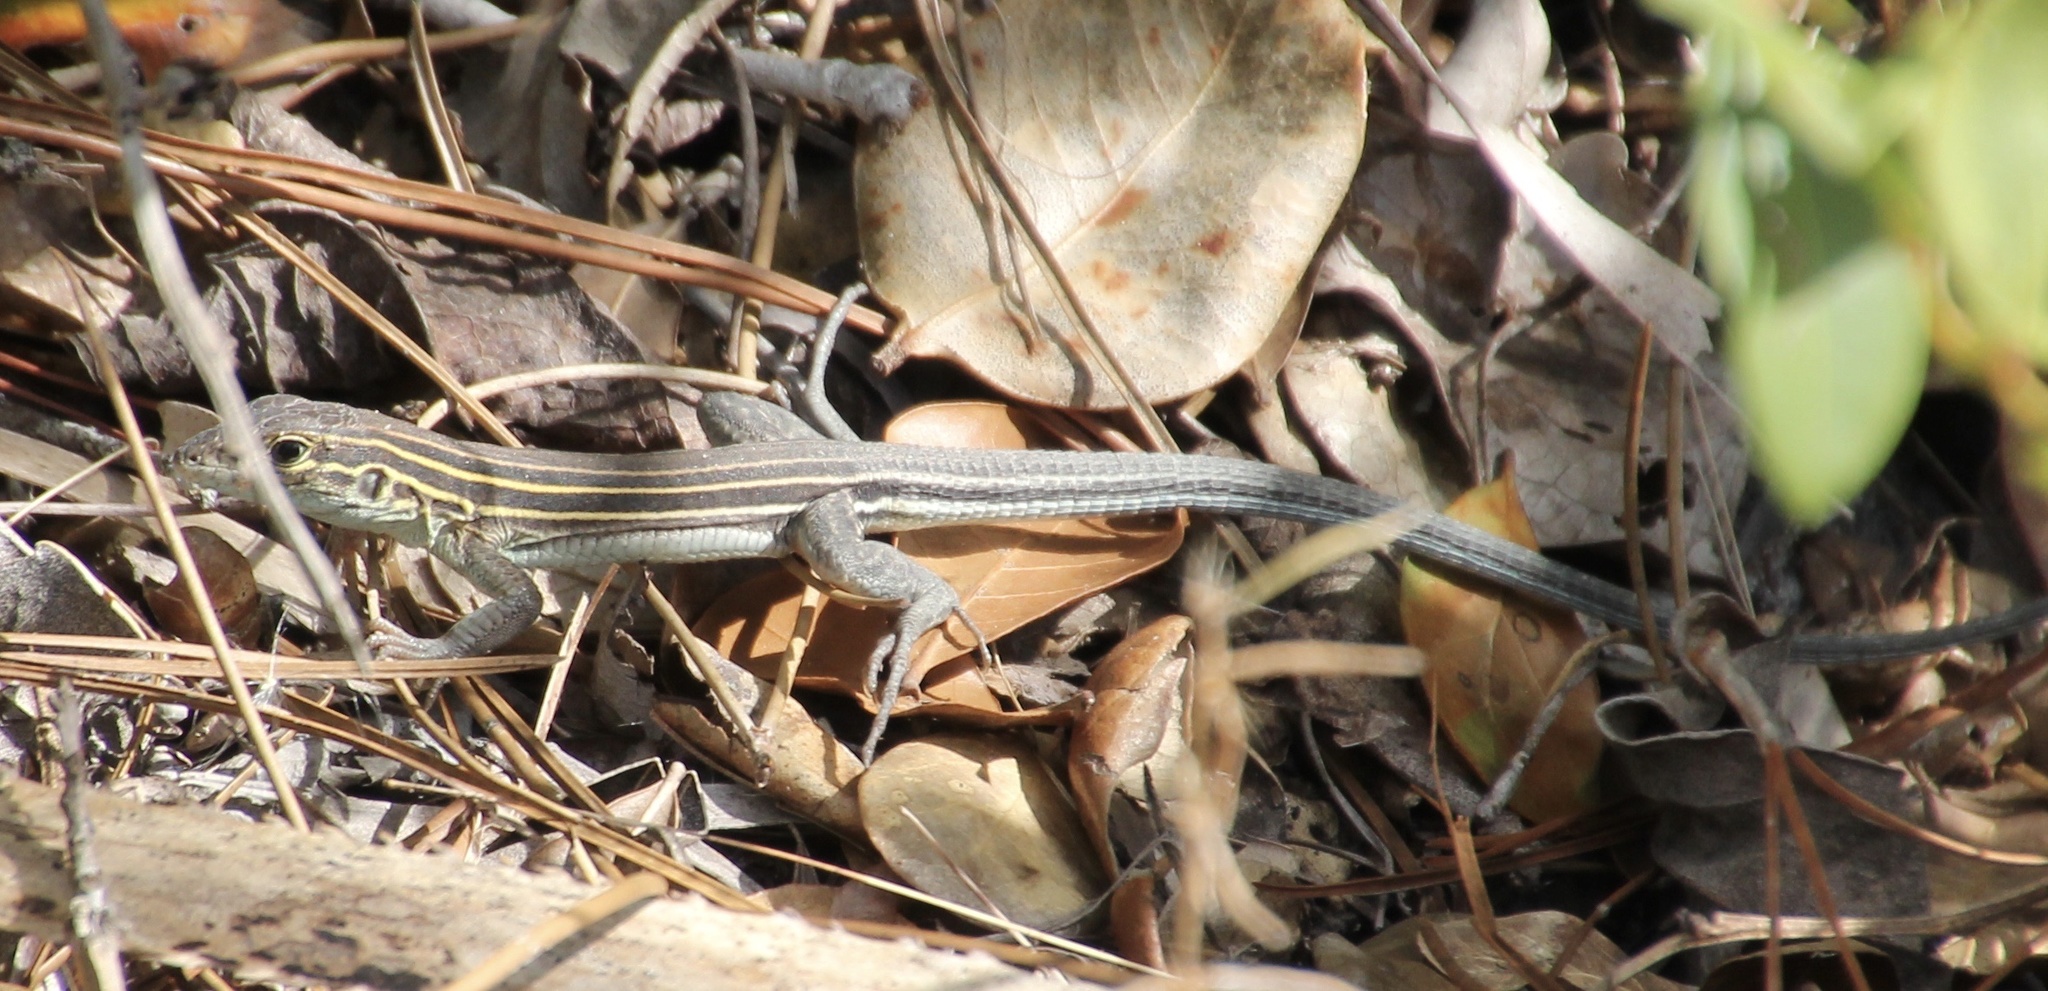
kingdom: Animalia
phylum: Chordata
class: Squamata
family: Teiidae
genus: Aspidoscelis
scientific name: Aspidoscelis sexlineatus
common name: Six-lined racerunner
